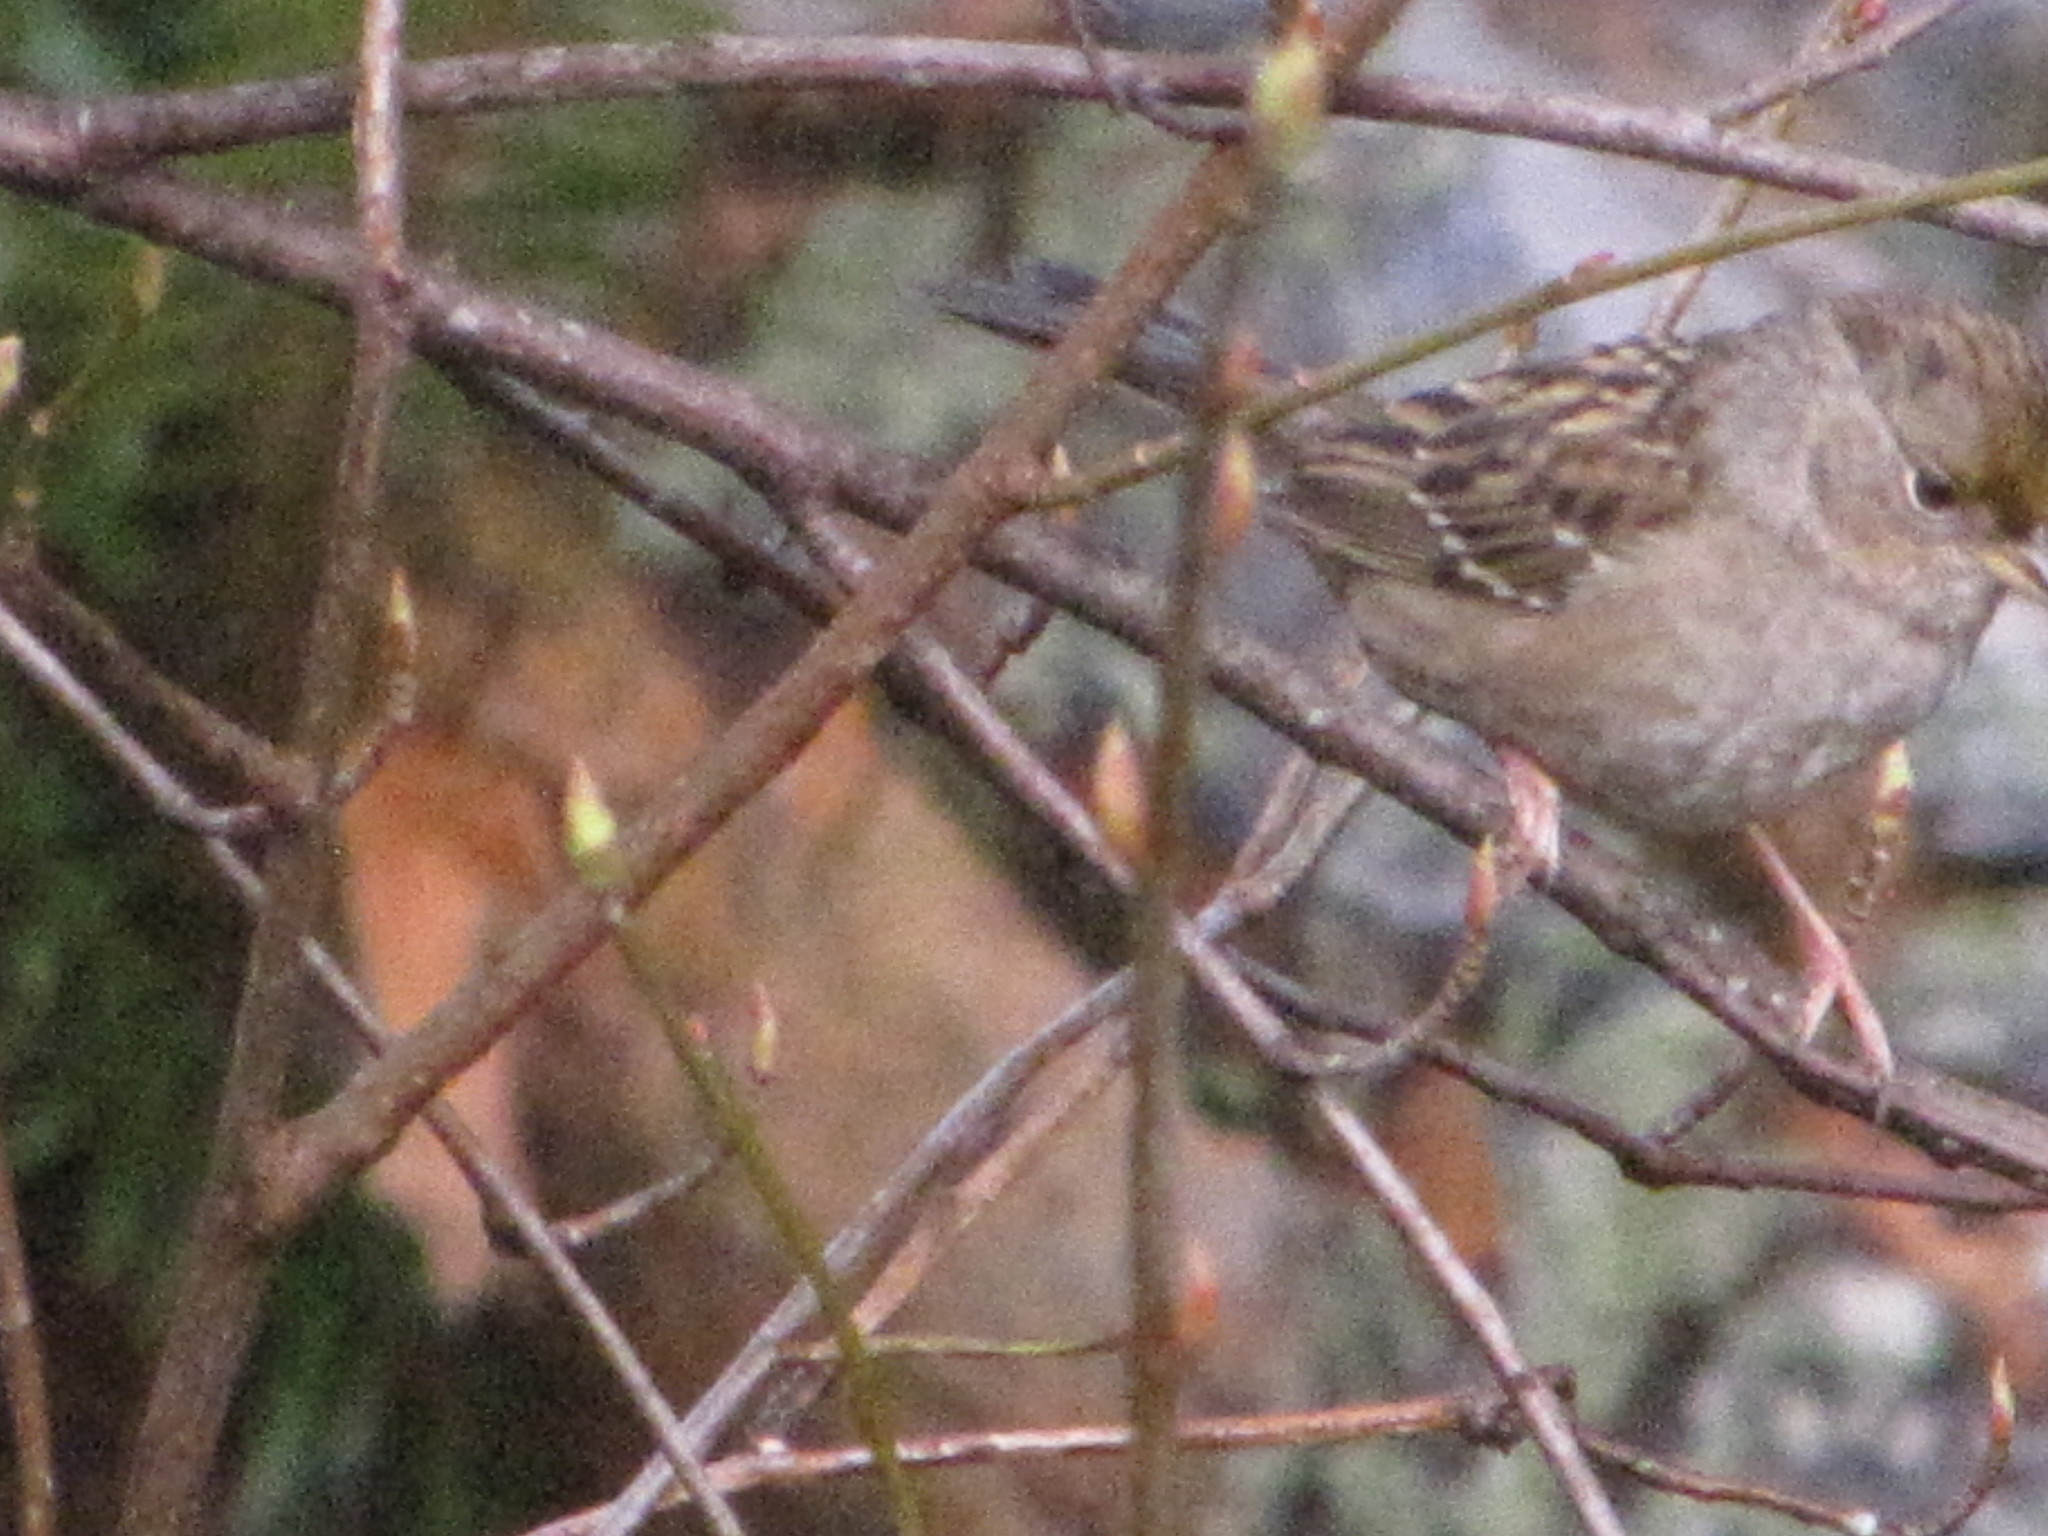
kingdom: Animalia
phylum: Chordata
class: Aves
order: Passeriformes
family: Passerellidae
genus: Zonotrichia
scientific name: Zonotrichia atricapilla
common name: Golden-crowned sparrow
